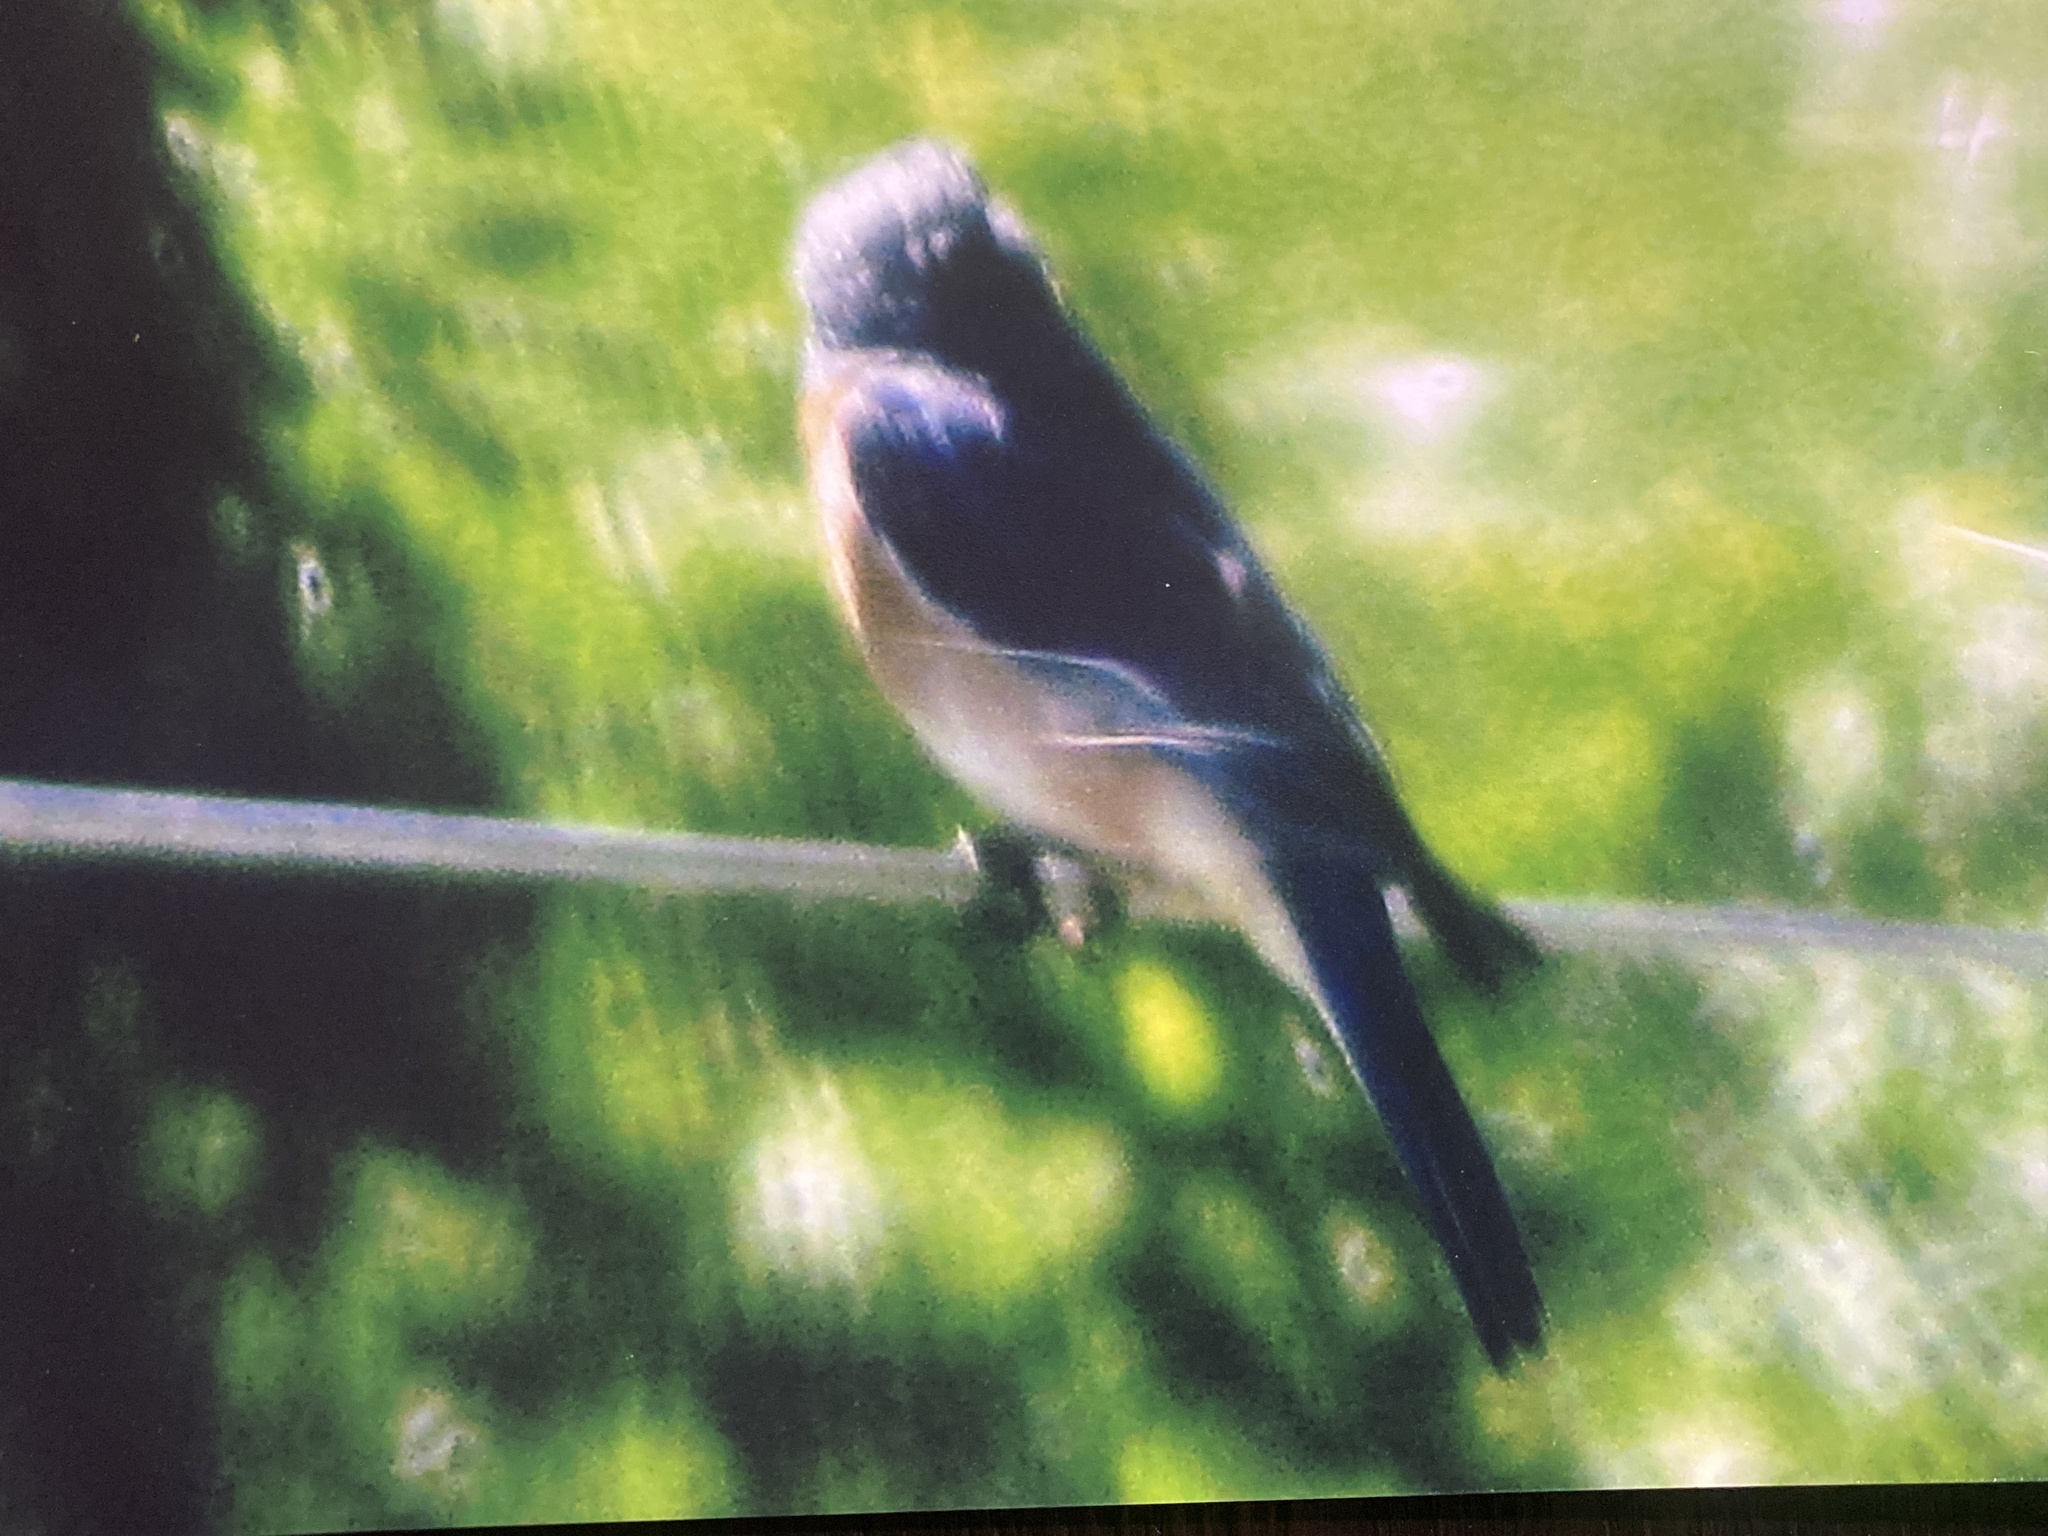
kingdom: Animalia
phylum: Chordata
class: Aves
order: Passeriformes
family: Turdidae
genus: Sialia
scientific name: Sialia sialis
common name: Eastern bluebird
